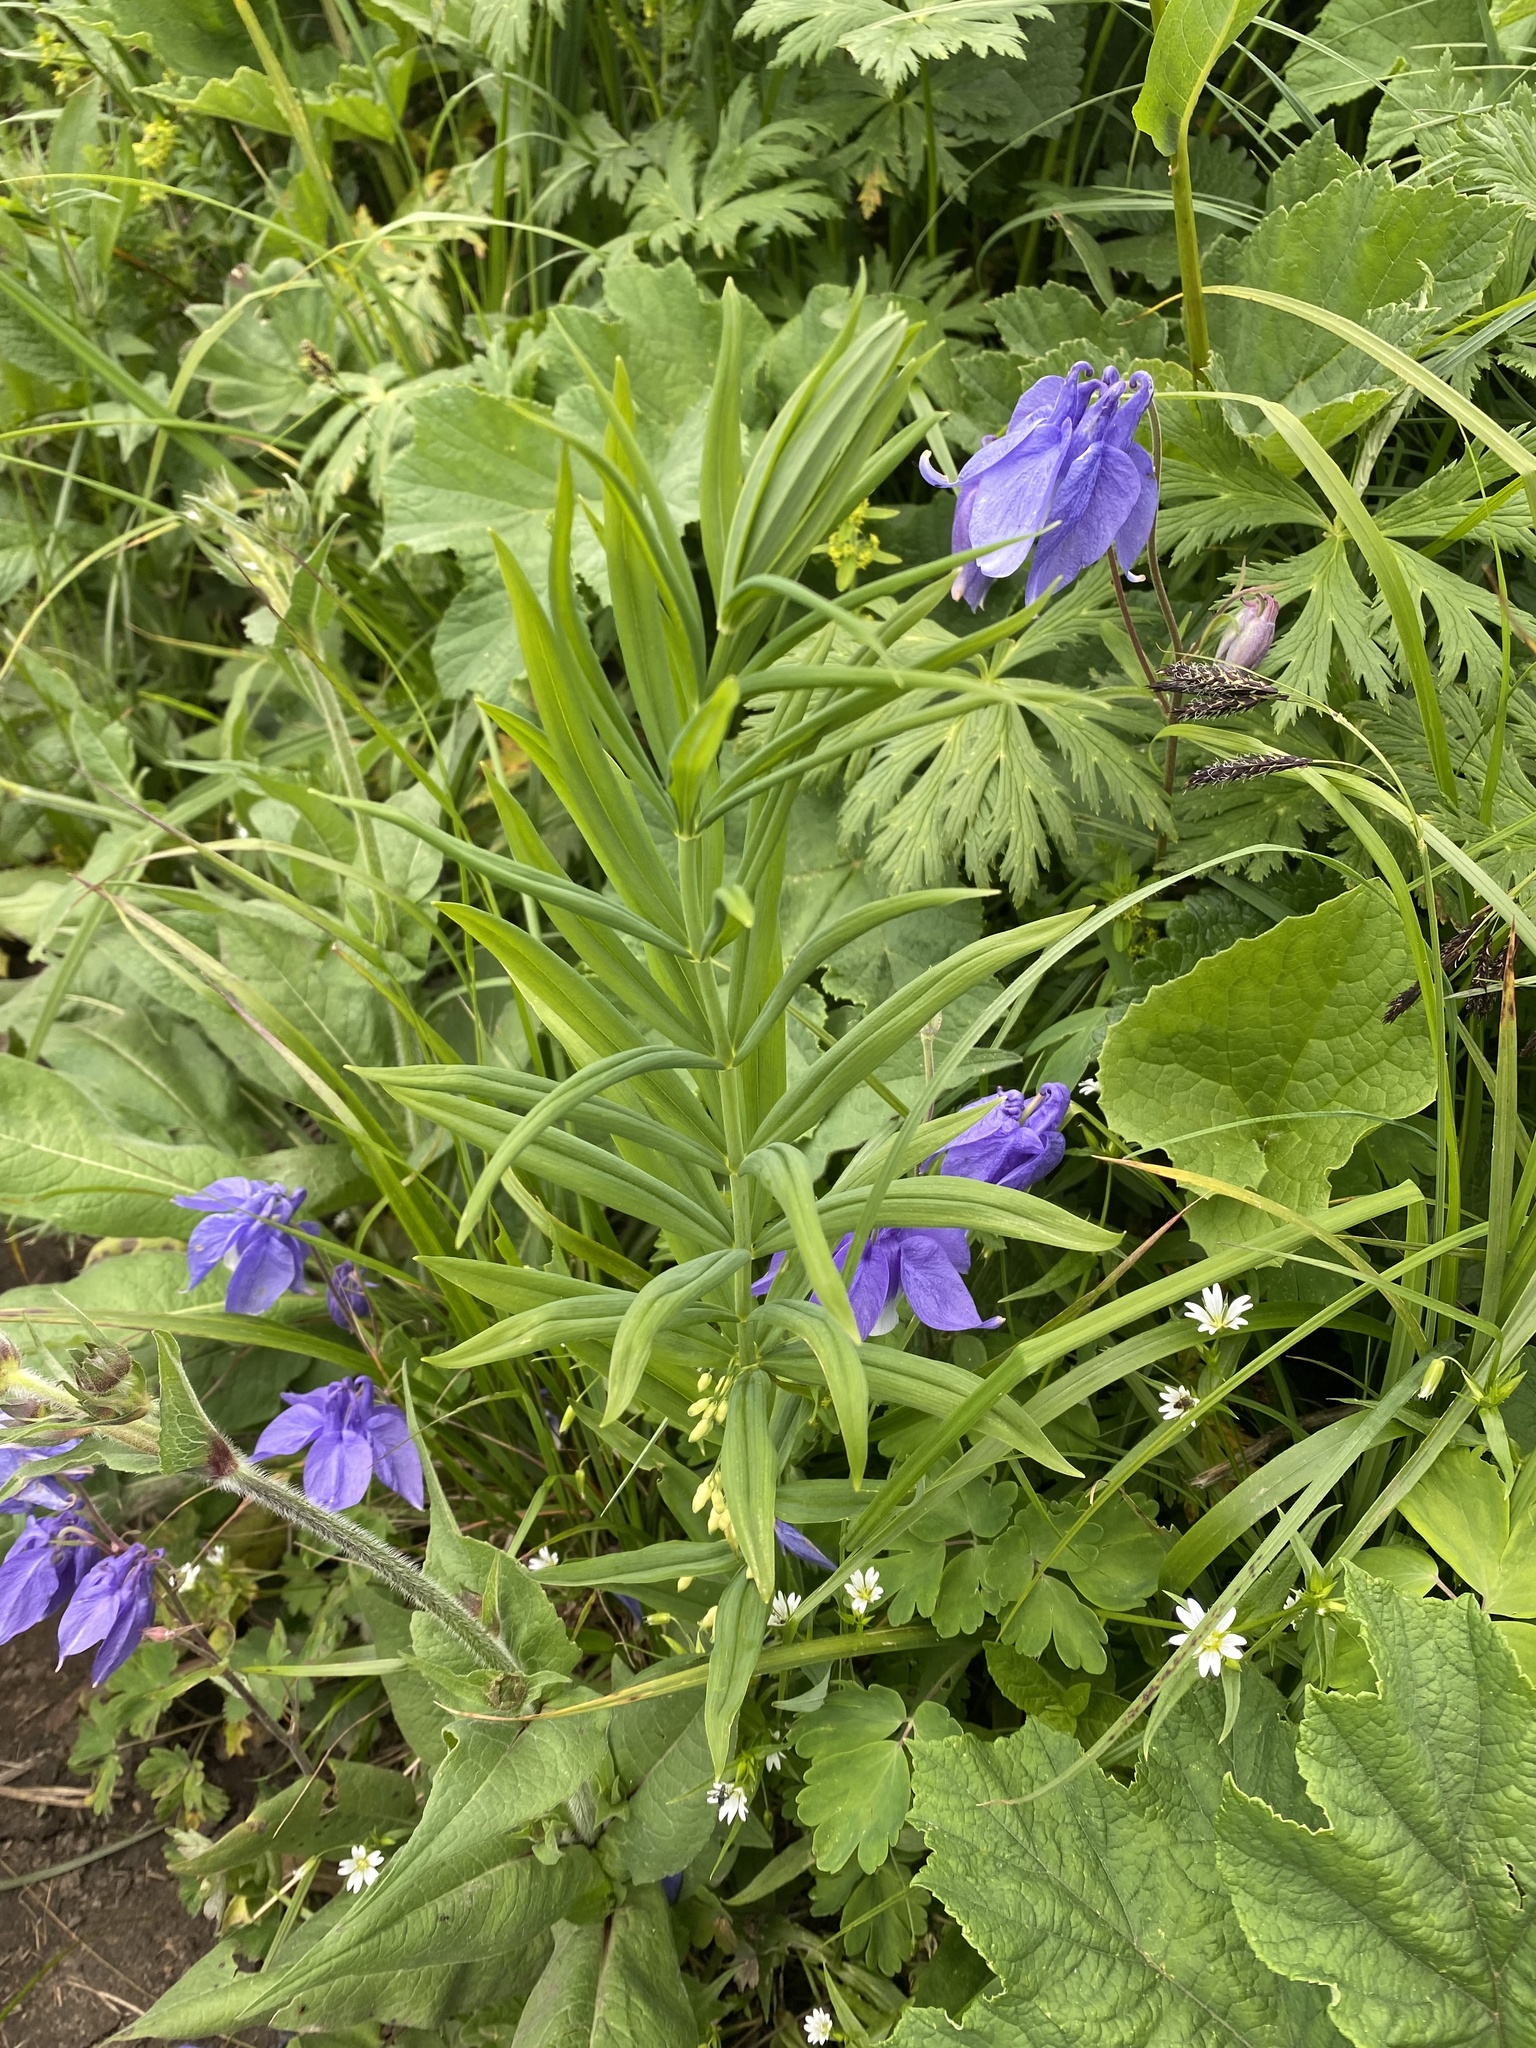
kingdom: Plantae
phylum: Tracheophyta
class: Liliopsida
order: Asparagales
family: Asparagaceae
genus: Polygonatum
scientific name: Polygonatum verticillatum
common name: Whorled solomon's-seal
